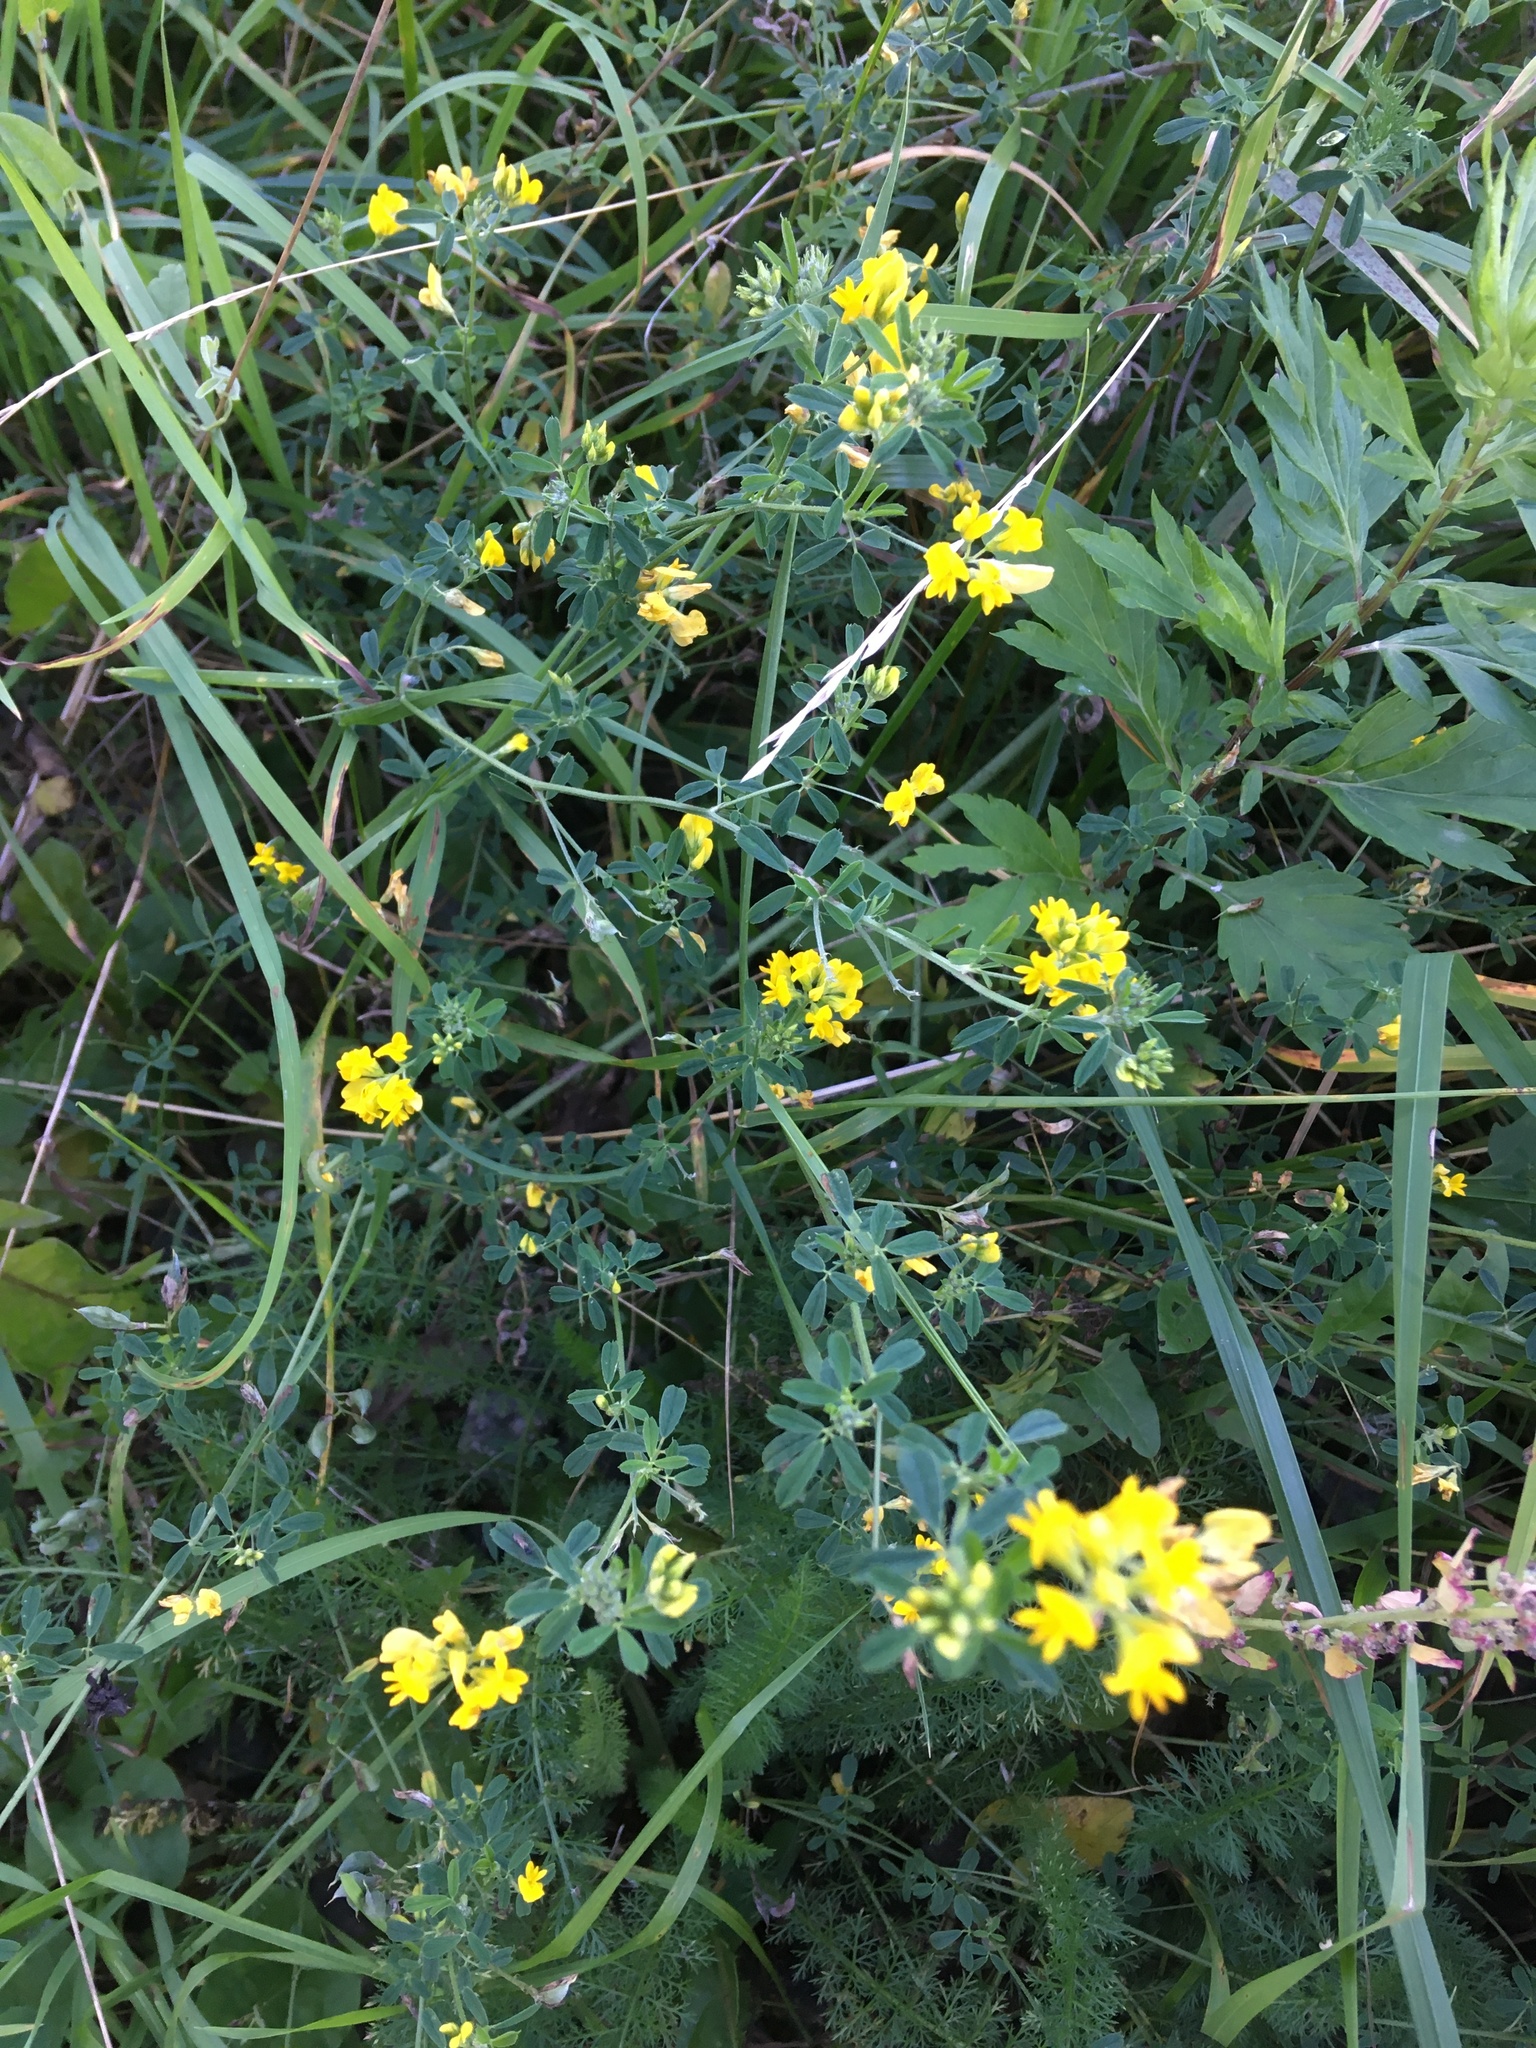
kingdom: Plantae
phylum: Tracheophyta
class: Magnoliopsida
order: Fabales
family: Fabaceae
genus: Medicago
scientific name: Medicago falcata
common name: Sickle medick
